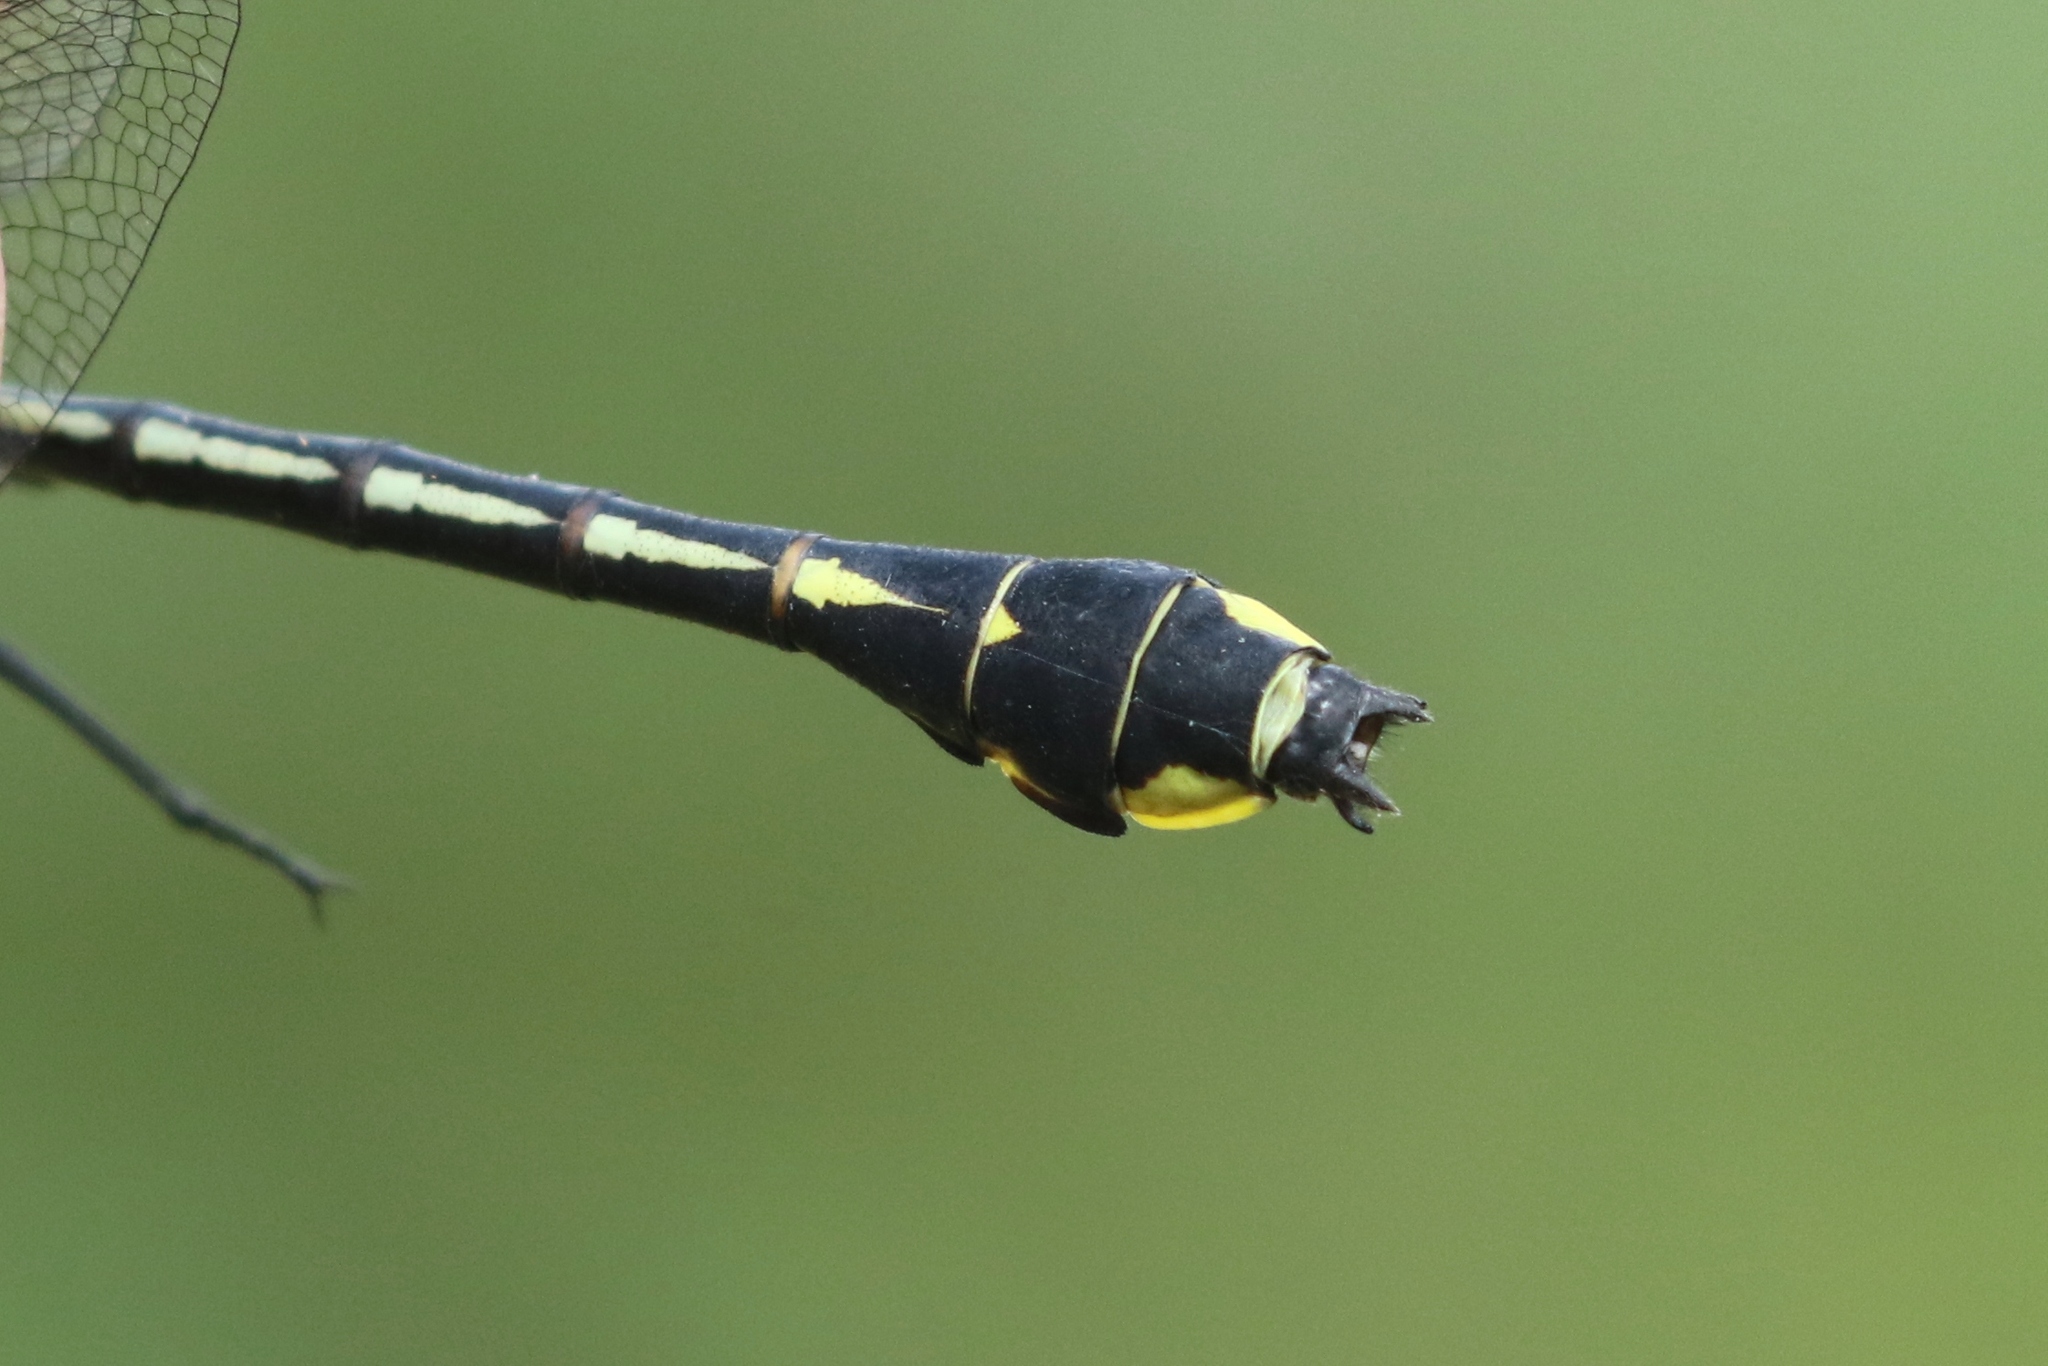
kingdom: Animalia
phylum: Arthropoda
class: Insecta
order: Odonata
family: Gomphidae
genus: Gomphurus
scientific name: Gomphurus fraternus
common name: Midland clubtail
